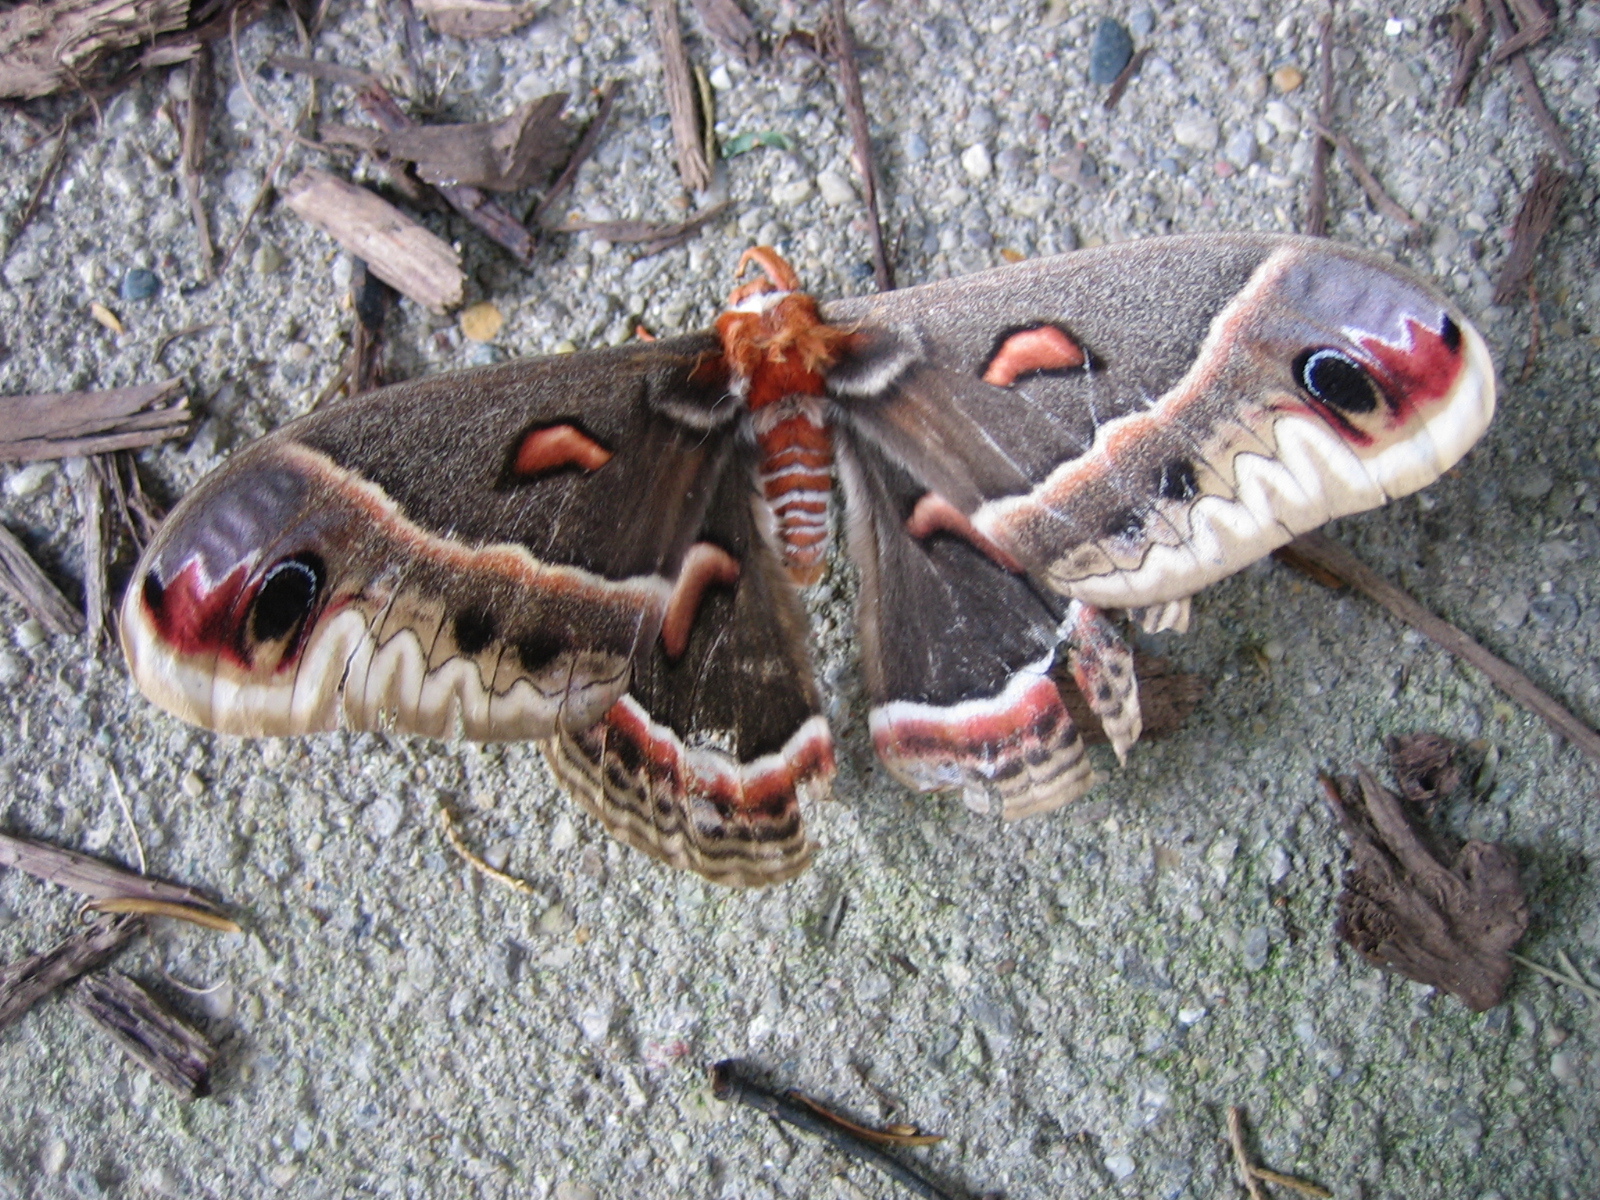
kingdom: Animalia
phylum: Arthropoda
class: Insecta
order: Lepidoptera
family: Saturniidae
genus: Hyalophora
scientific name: Hyalophora cecropia
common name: Cecropia silkmoth
